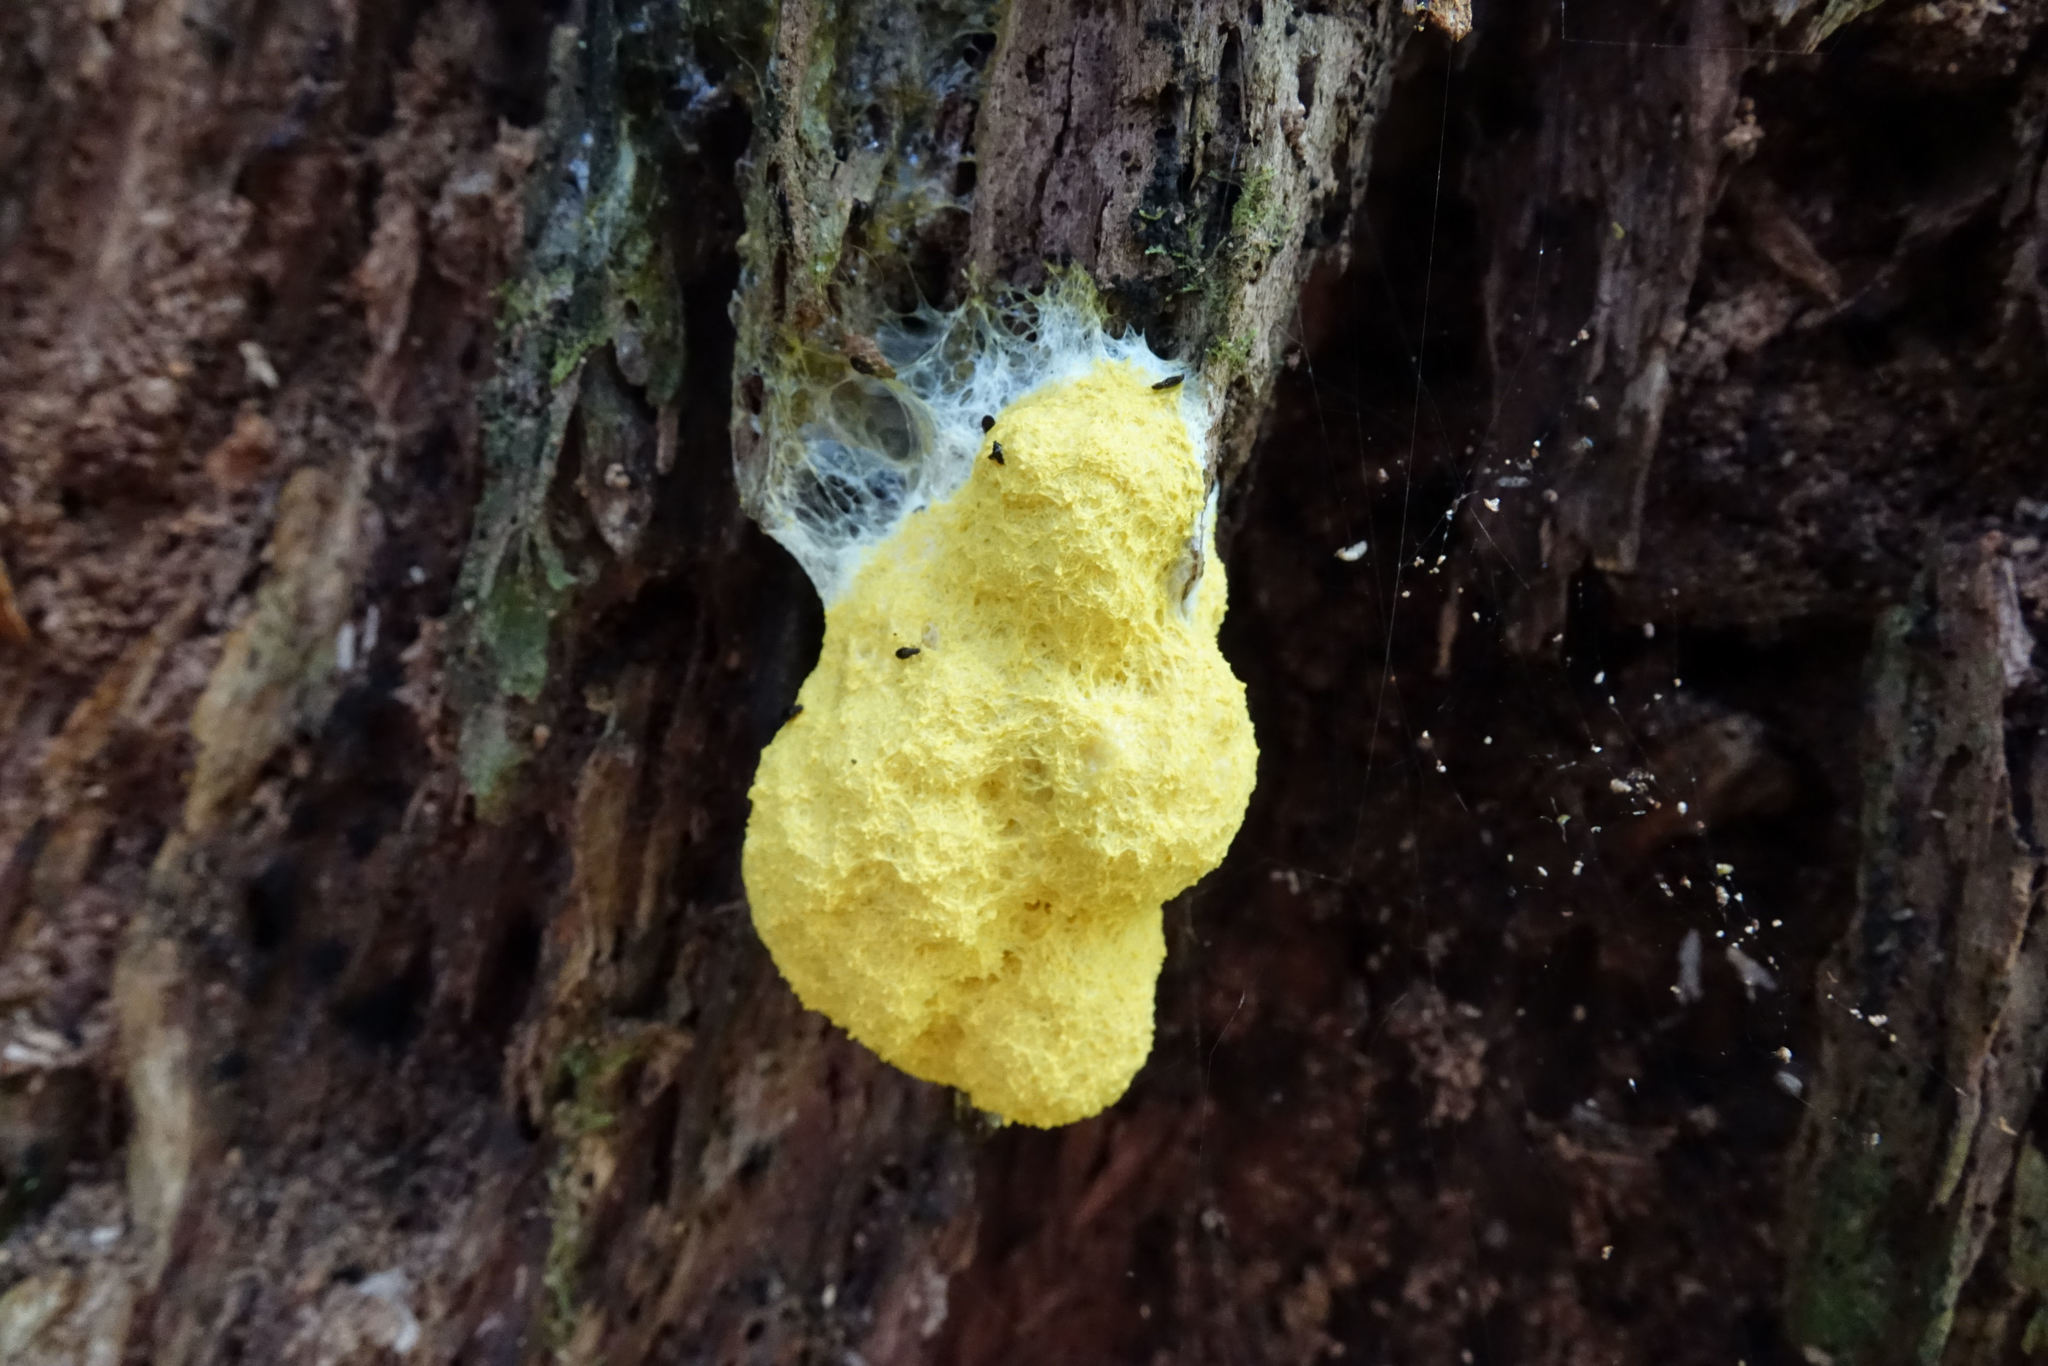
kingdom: Protozoa
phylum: Mycetozoa
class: Myxomycetes
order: Physarales
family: Physaraceae
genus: Fuligo
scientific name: Fuligo septica
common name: Dog vomit slime mold
